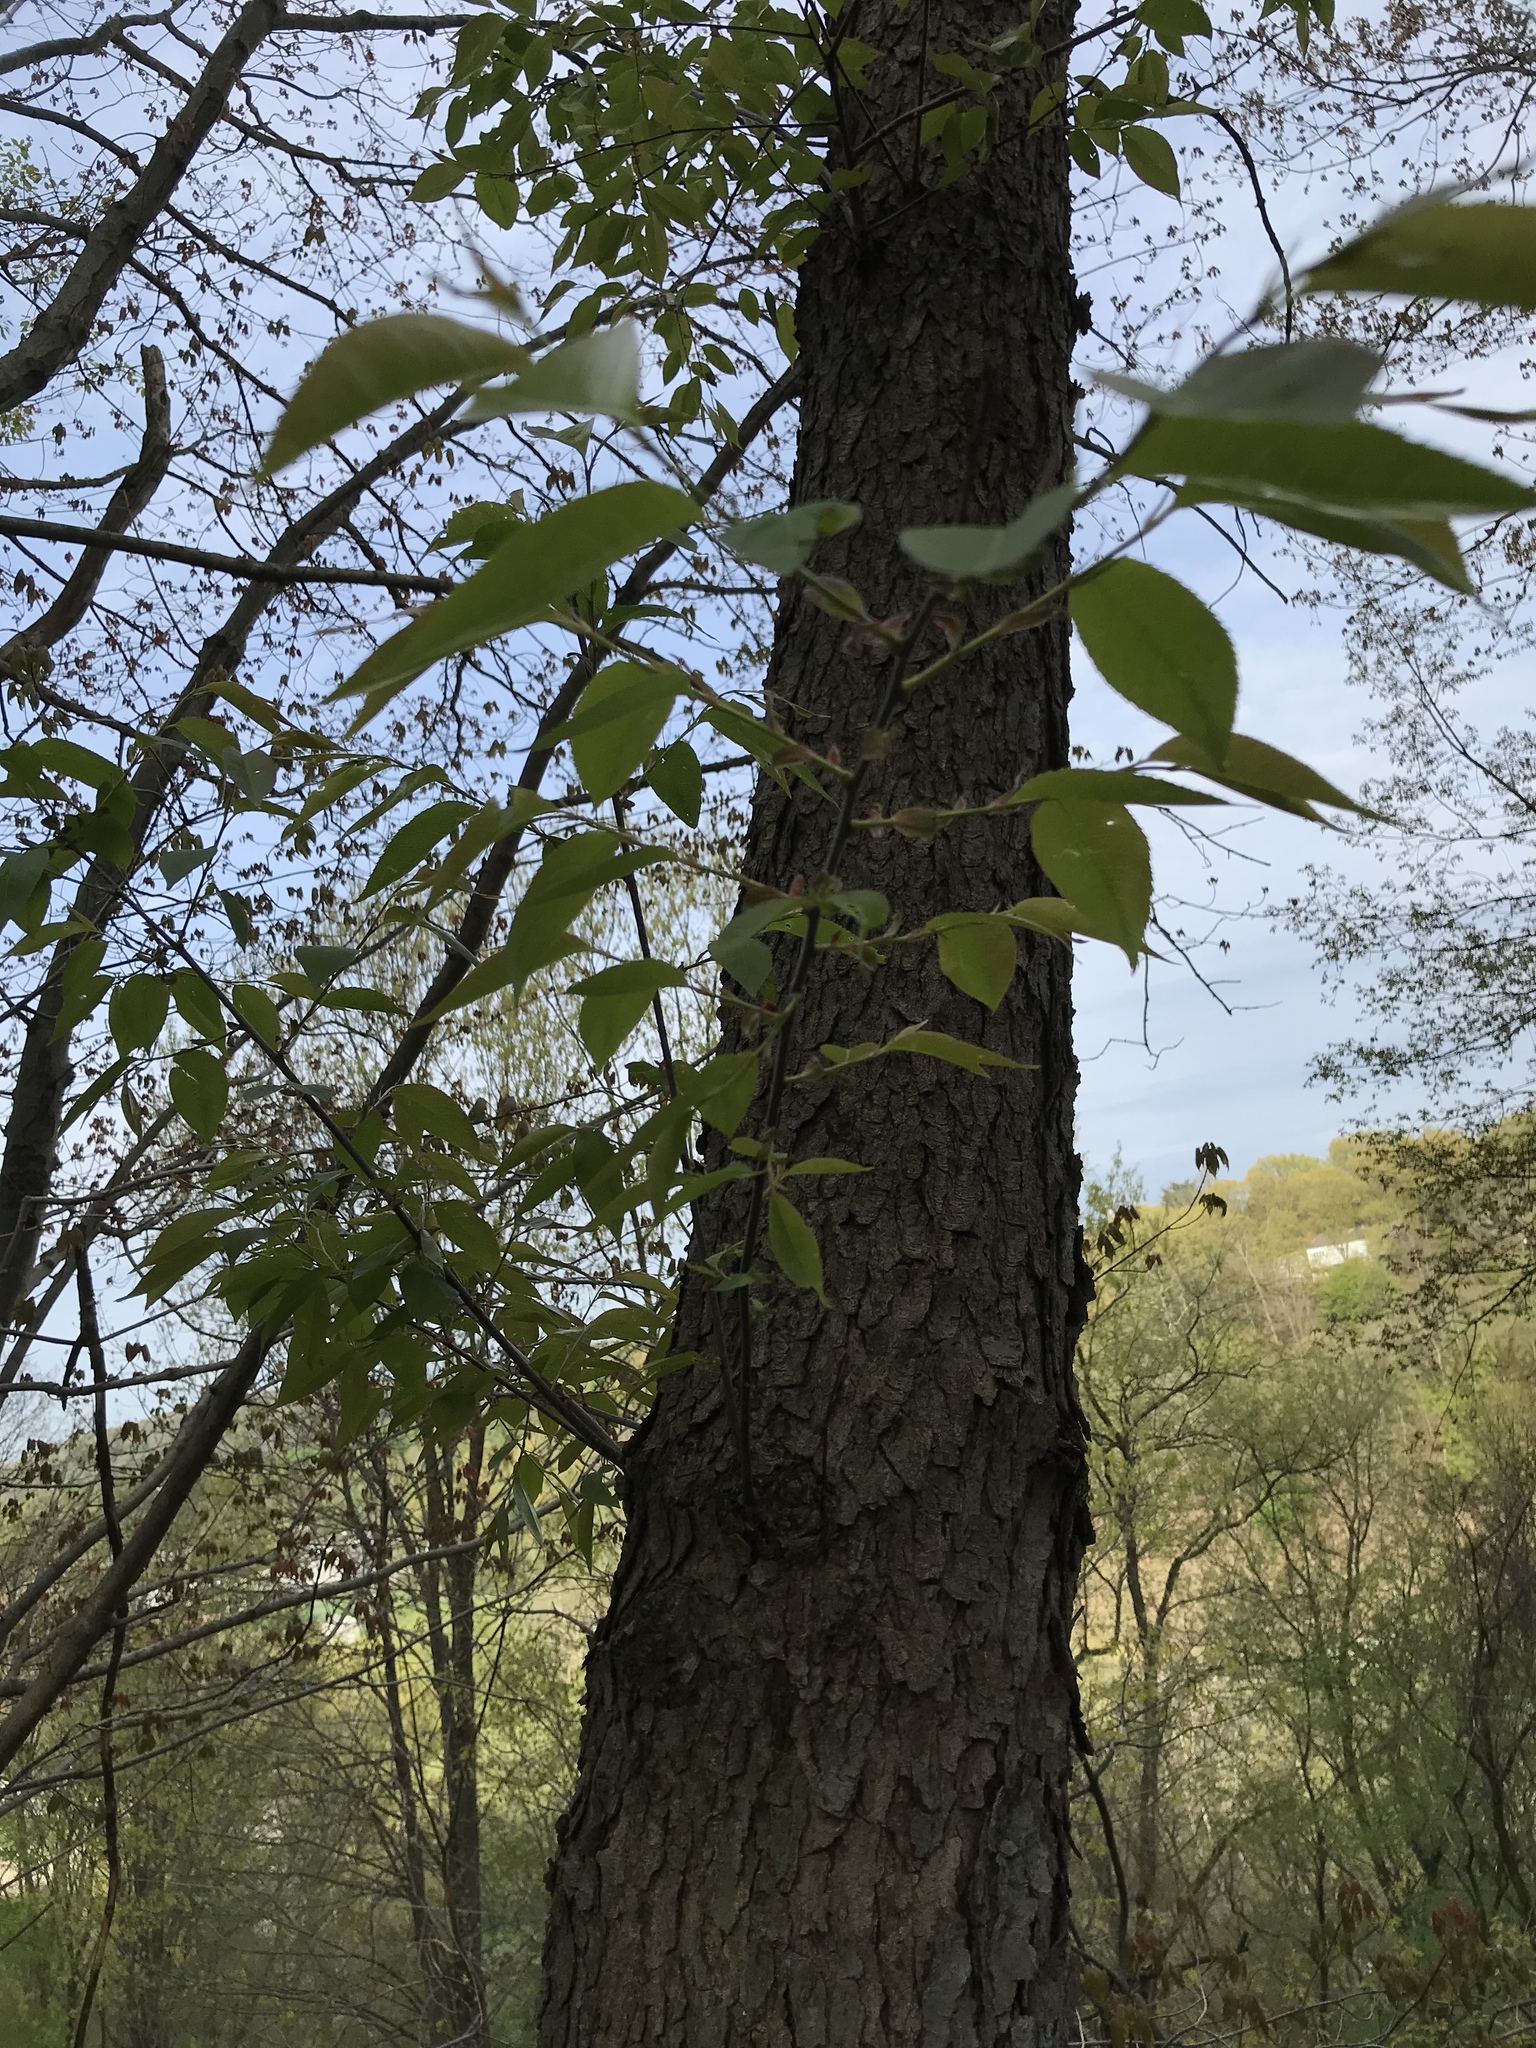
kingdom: Plantae
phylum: Tracheophyta
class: Magnoliopsida
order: Rosales
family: Rosaceae
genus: Prunus
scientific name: Prunus serotina
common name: Black cherry
